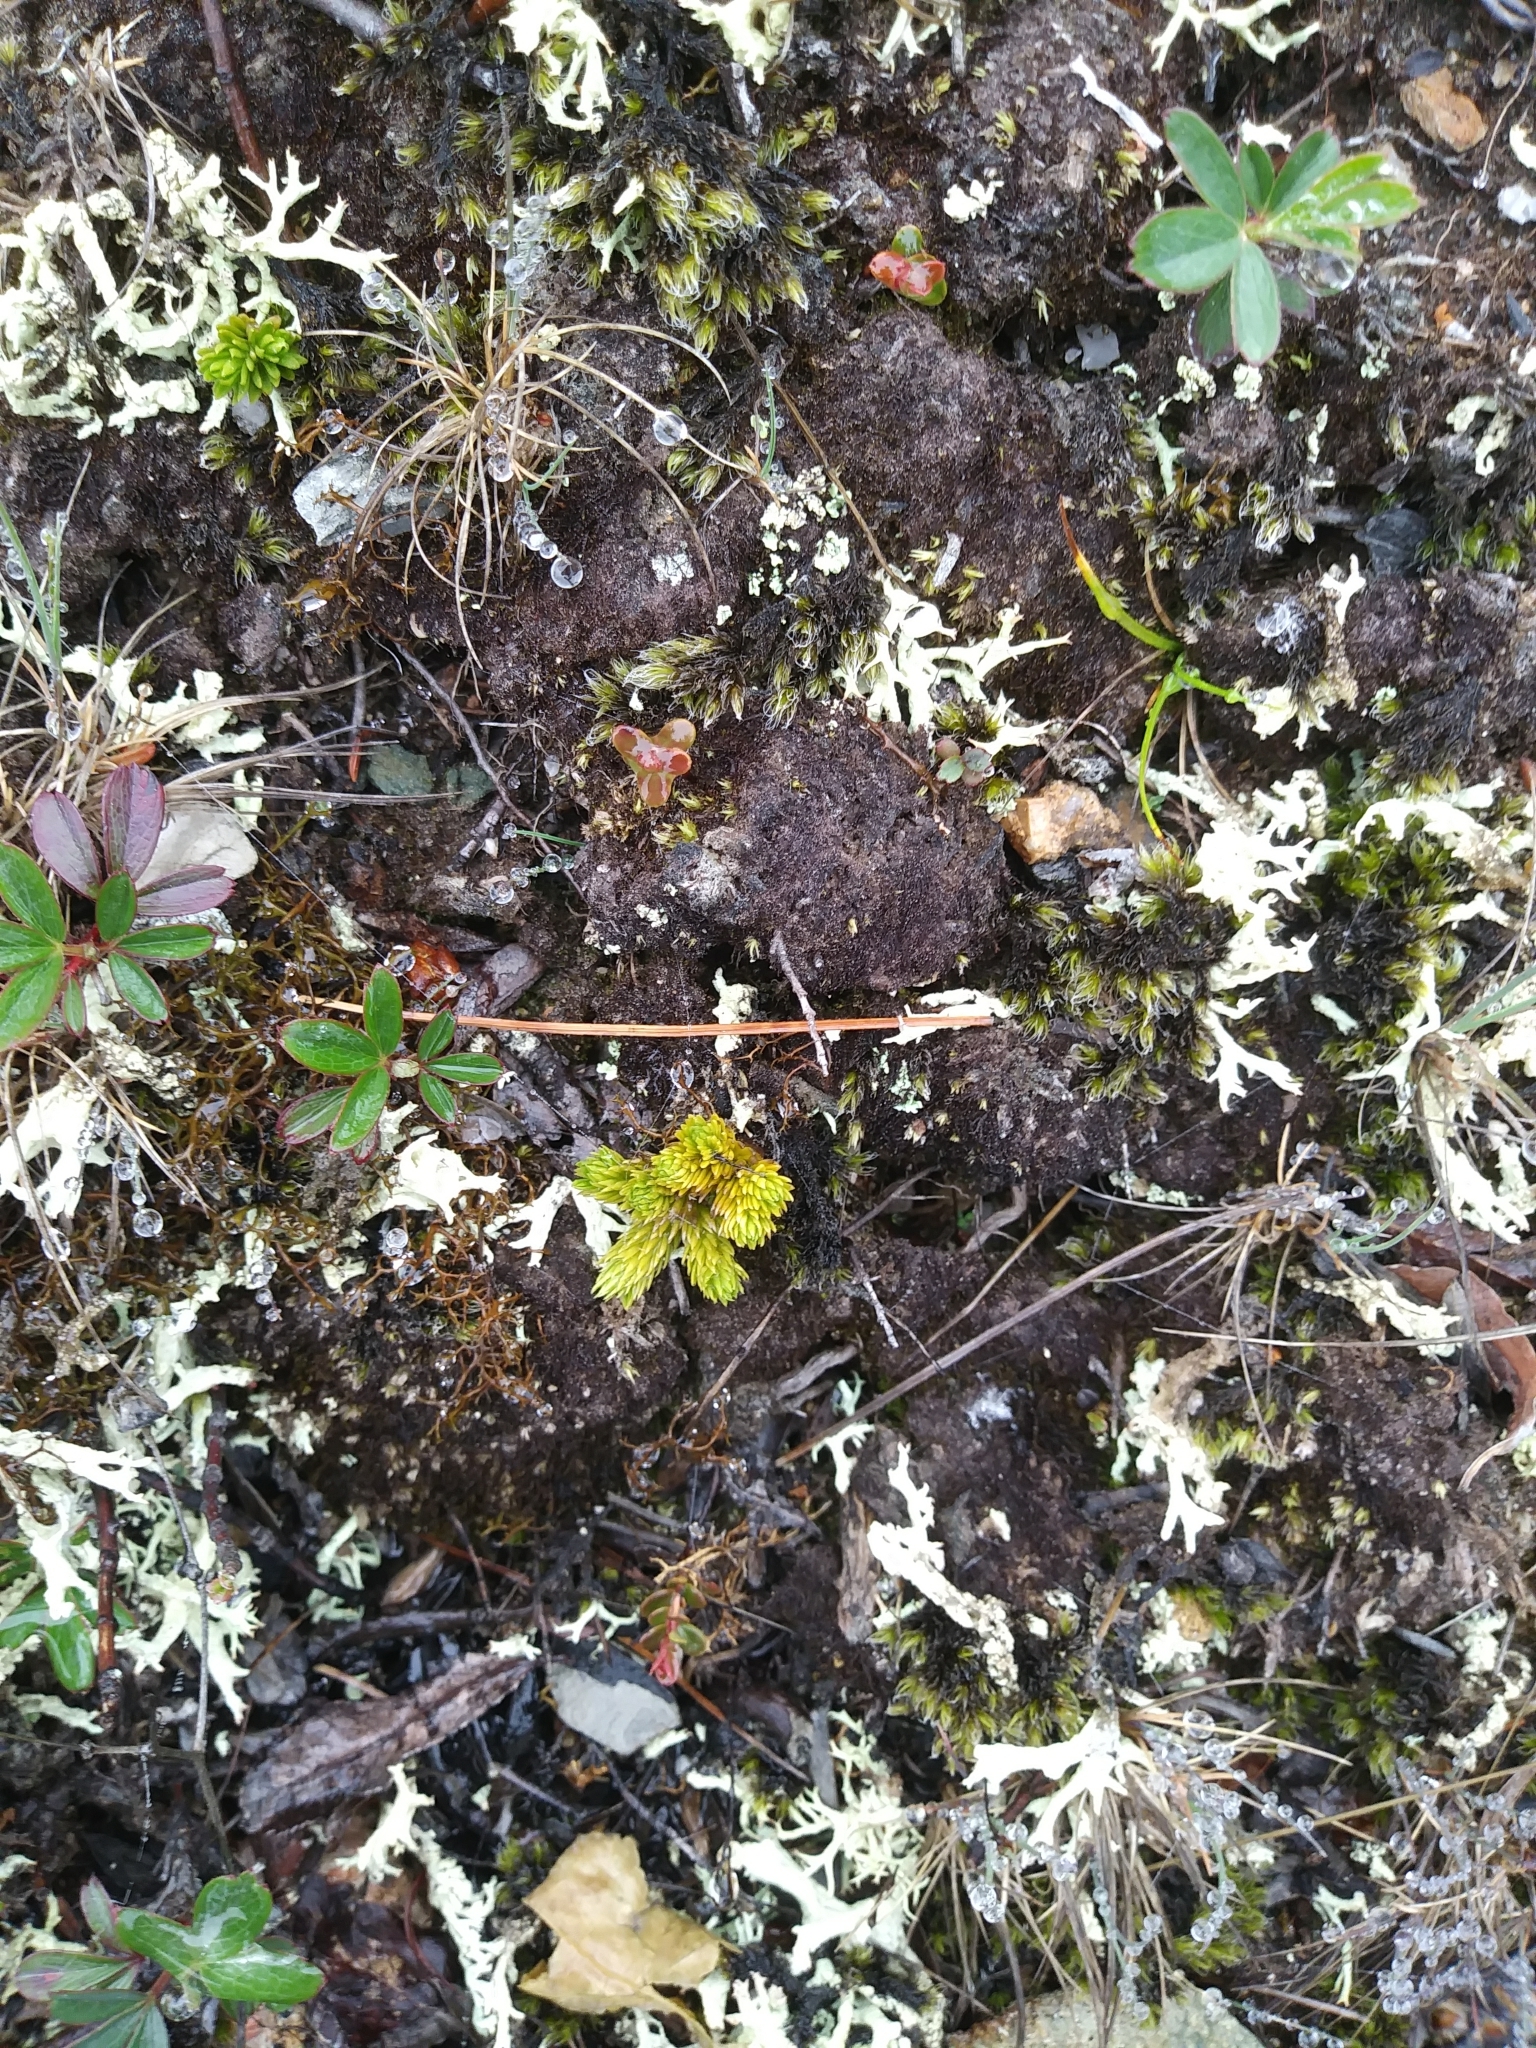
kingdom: Plantae
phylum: Tracheophyta
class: Lycopodiopsida
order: Lycopodiales
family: Lycopodiaceae
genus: Huperzia
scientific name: Huperzia selago
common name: Northern firmoss
